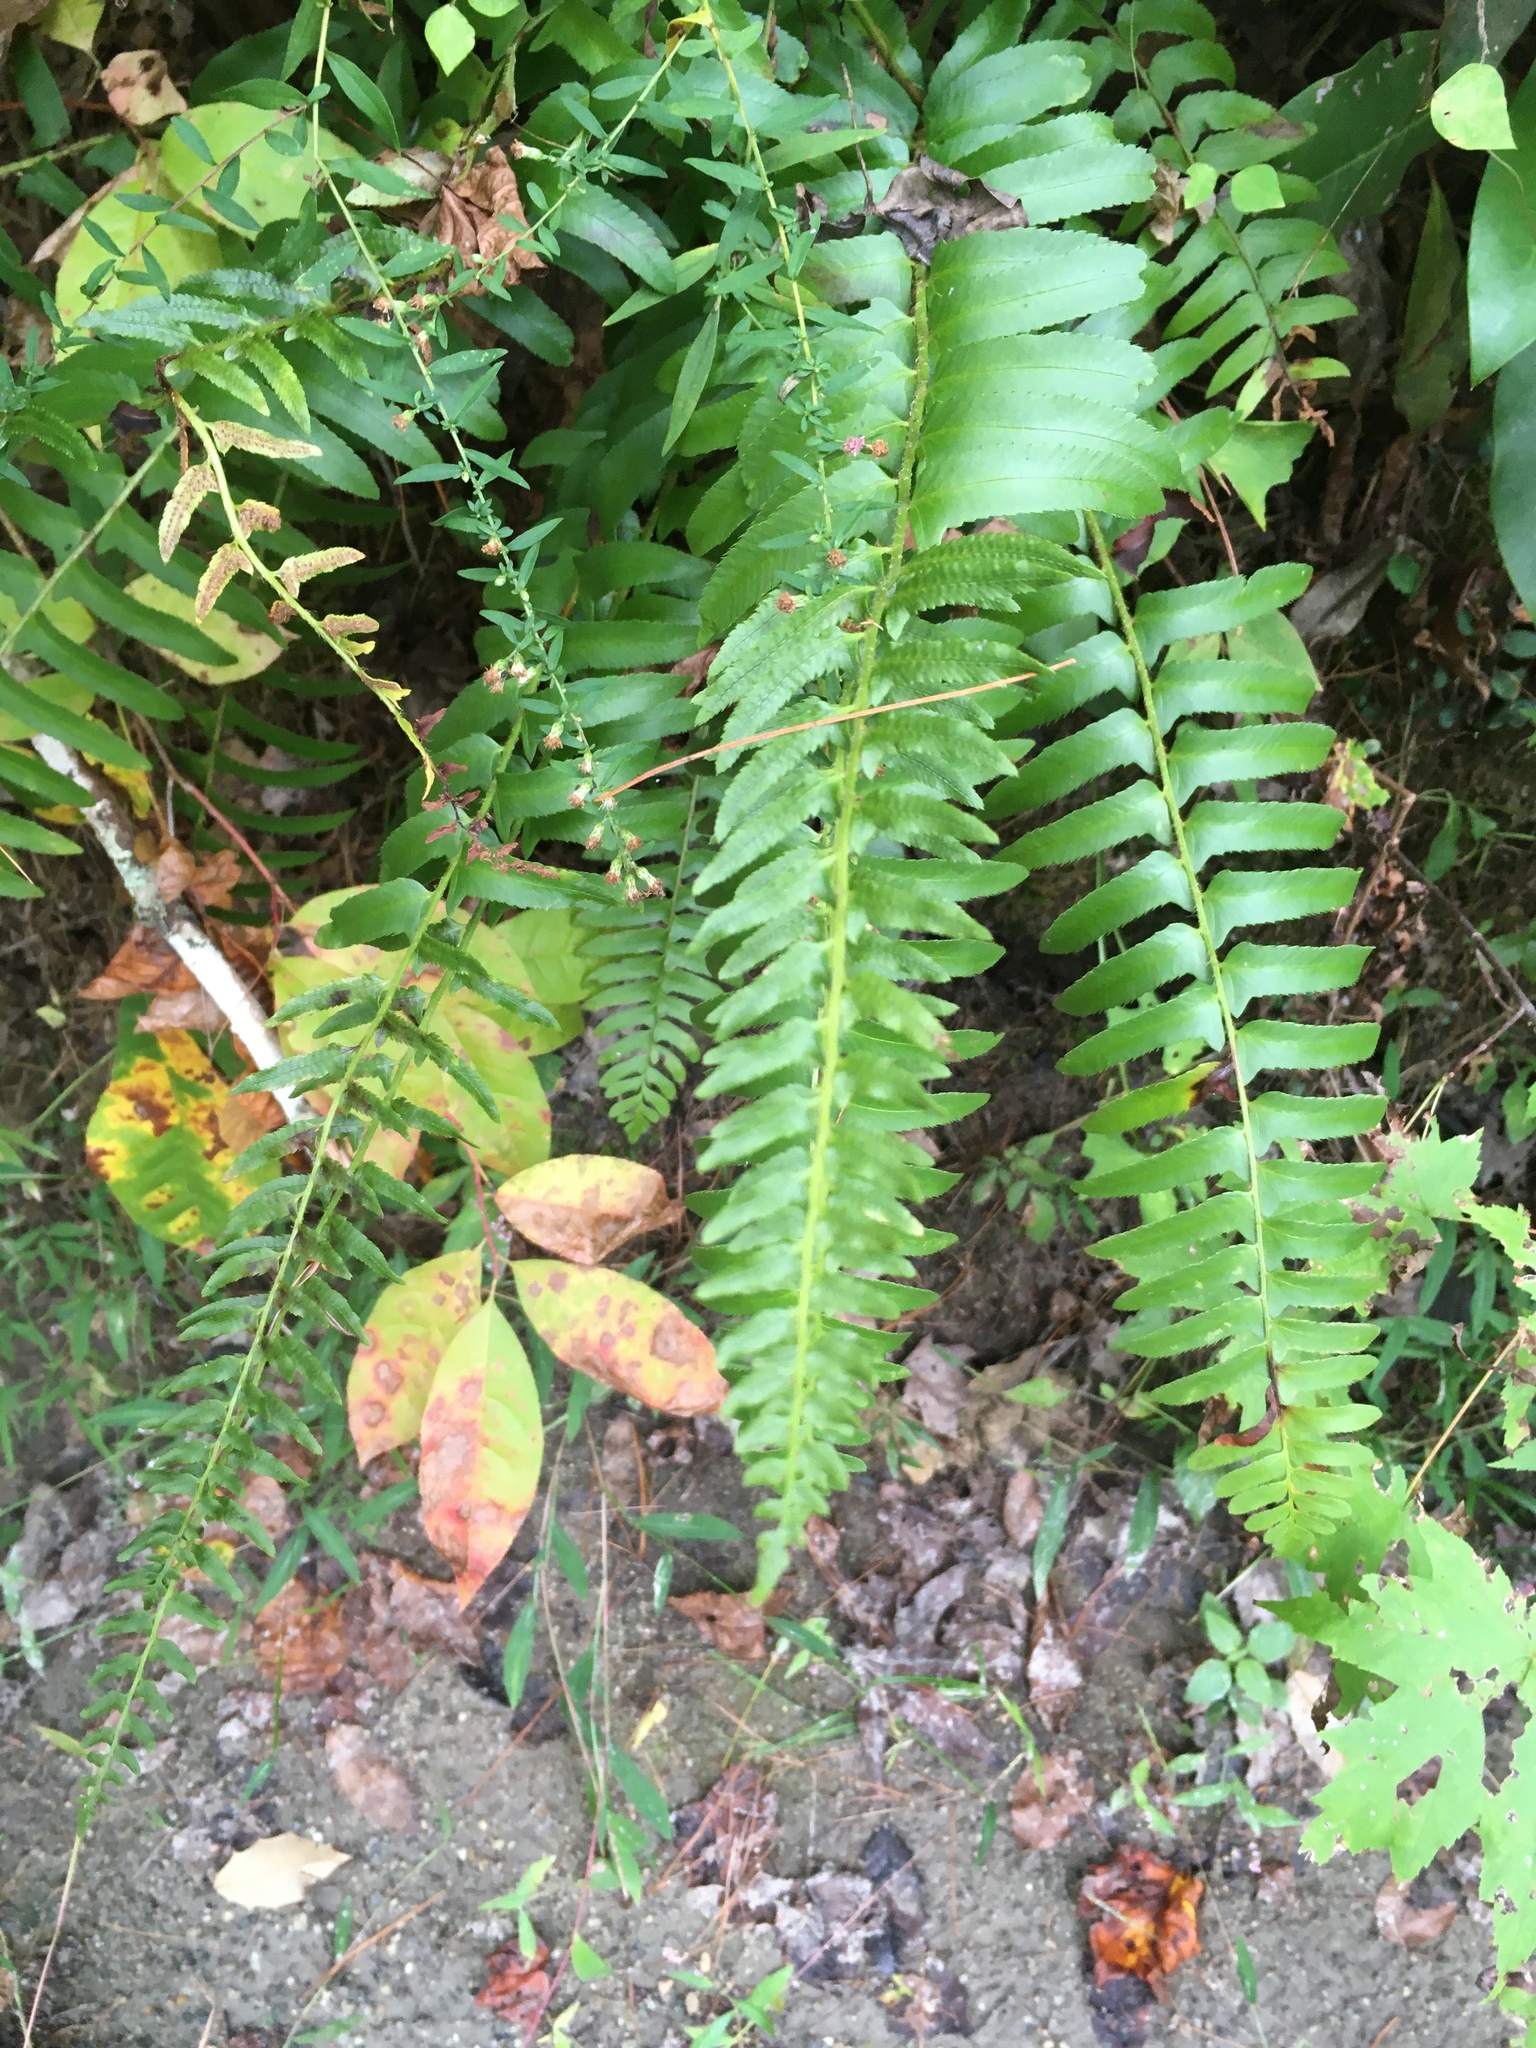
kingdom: Plantae
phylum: Tracheophyta
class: Polypodiopsida
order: Polypodiales
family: Dryopteridaceae
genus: Polystichum
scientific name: Polystichum acrostichoides
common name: Christmas fern
